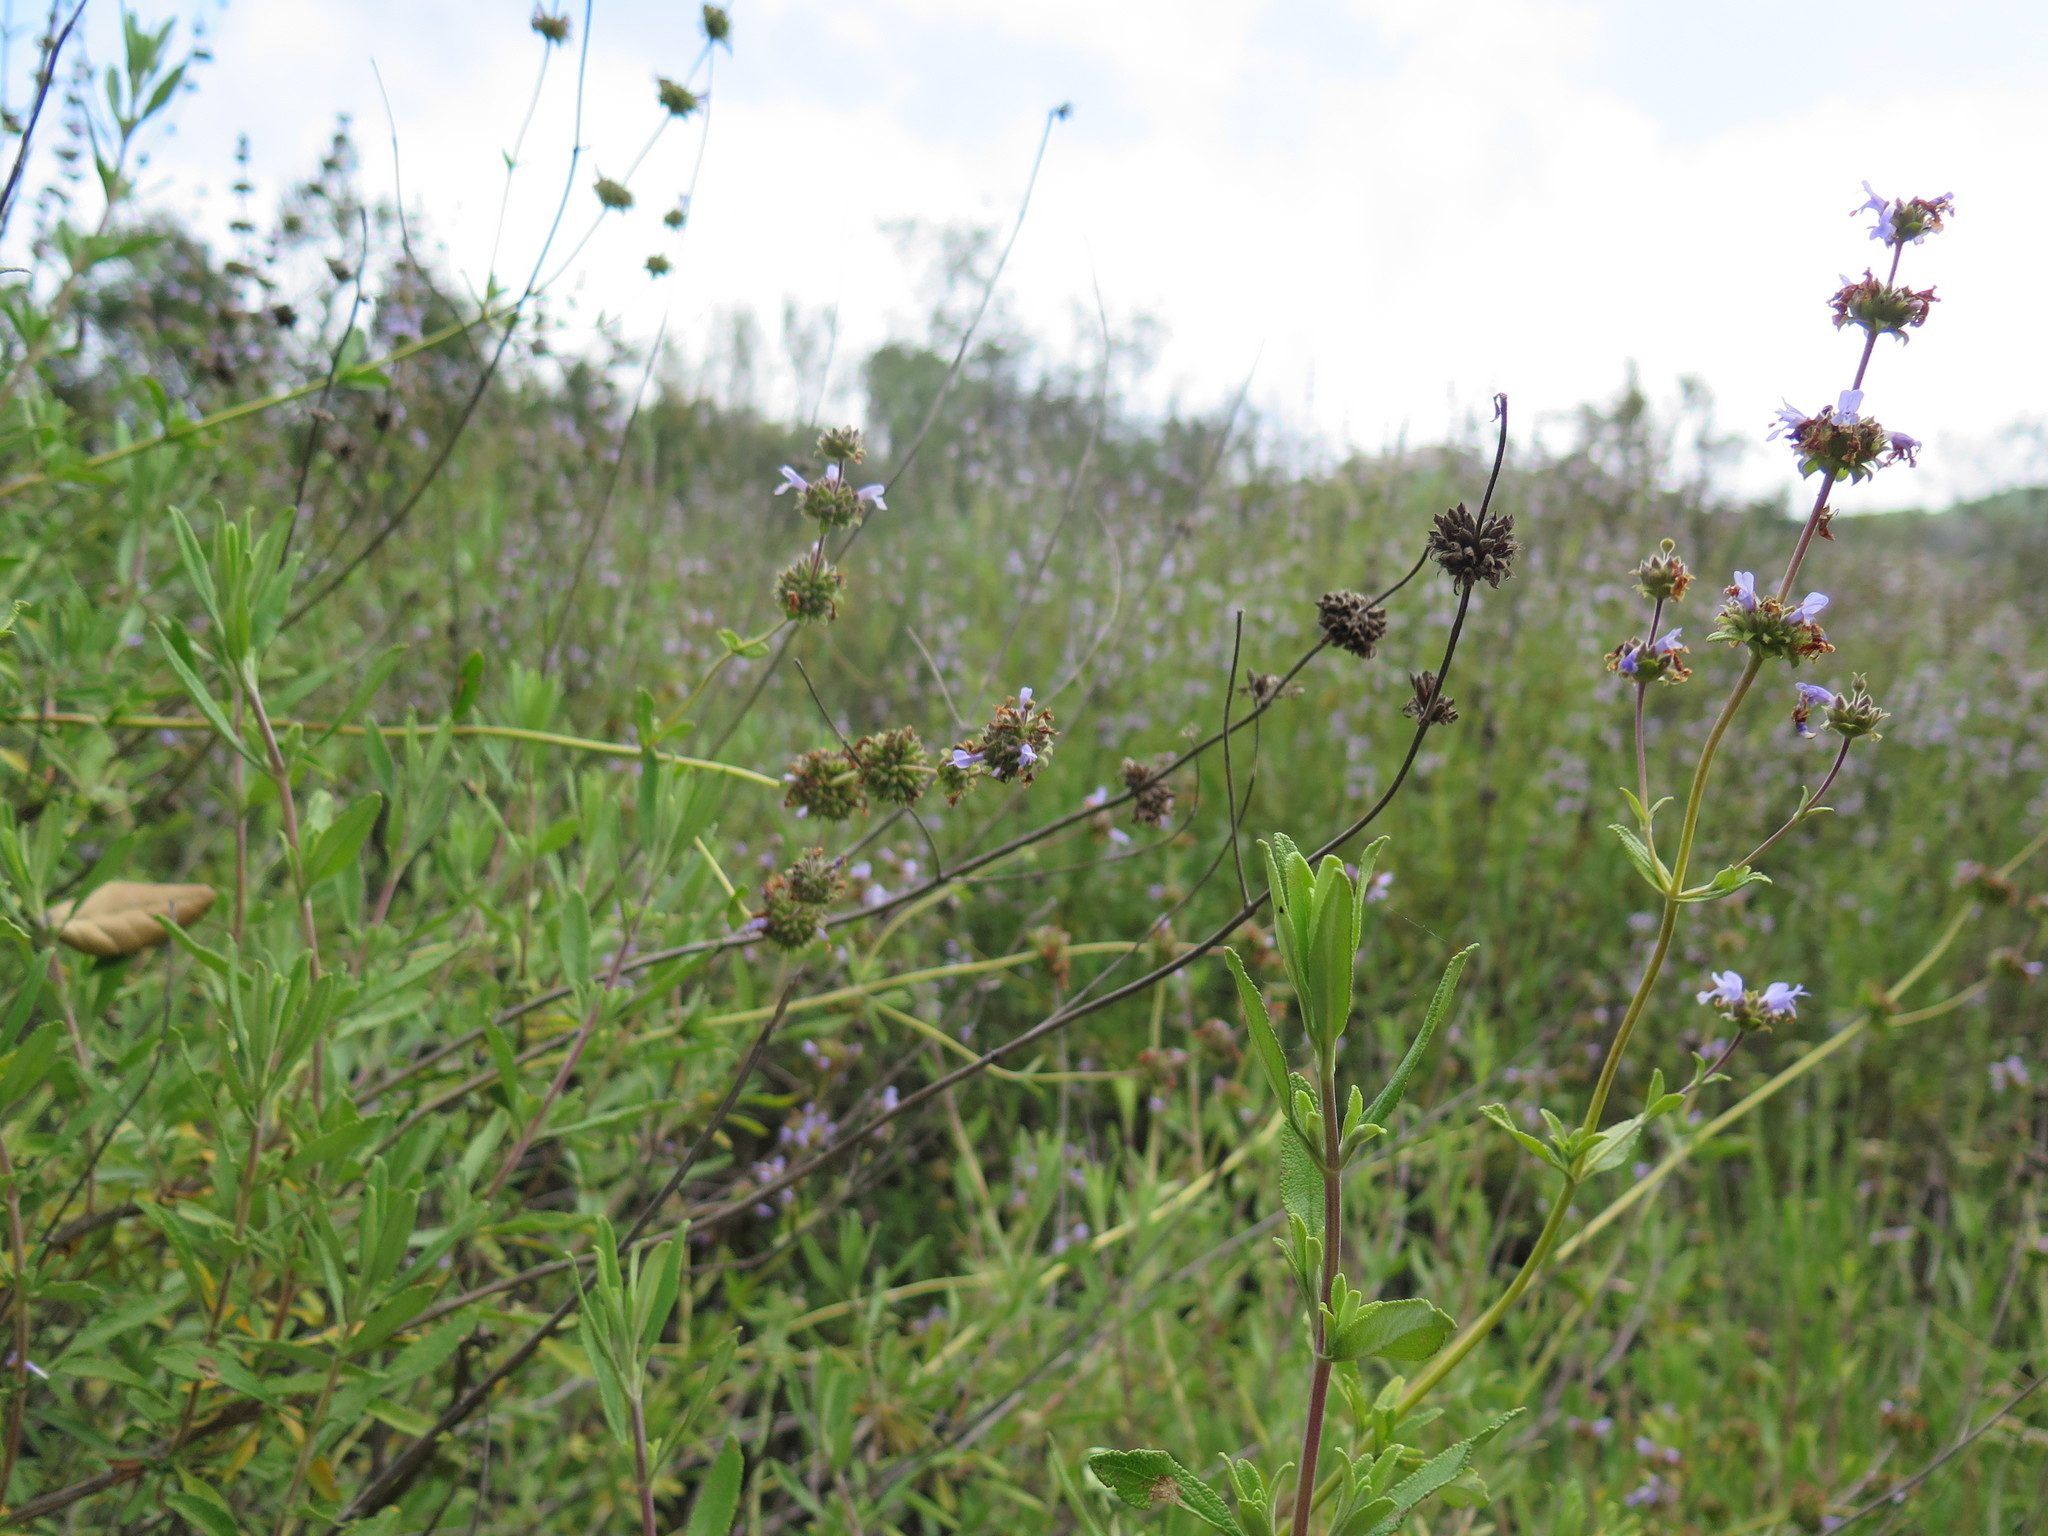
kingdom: Plantae
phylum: Tracheophyta
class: Magnoliopsida
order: Lamiales
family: Lamiaceae
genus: Salvia
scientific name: Salvia mellifera
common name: Black sage
